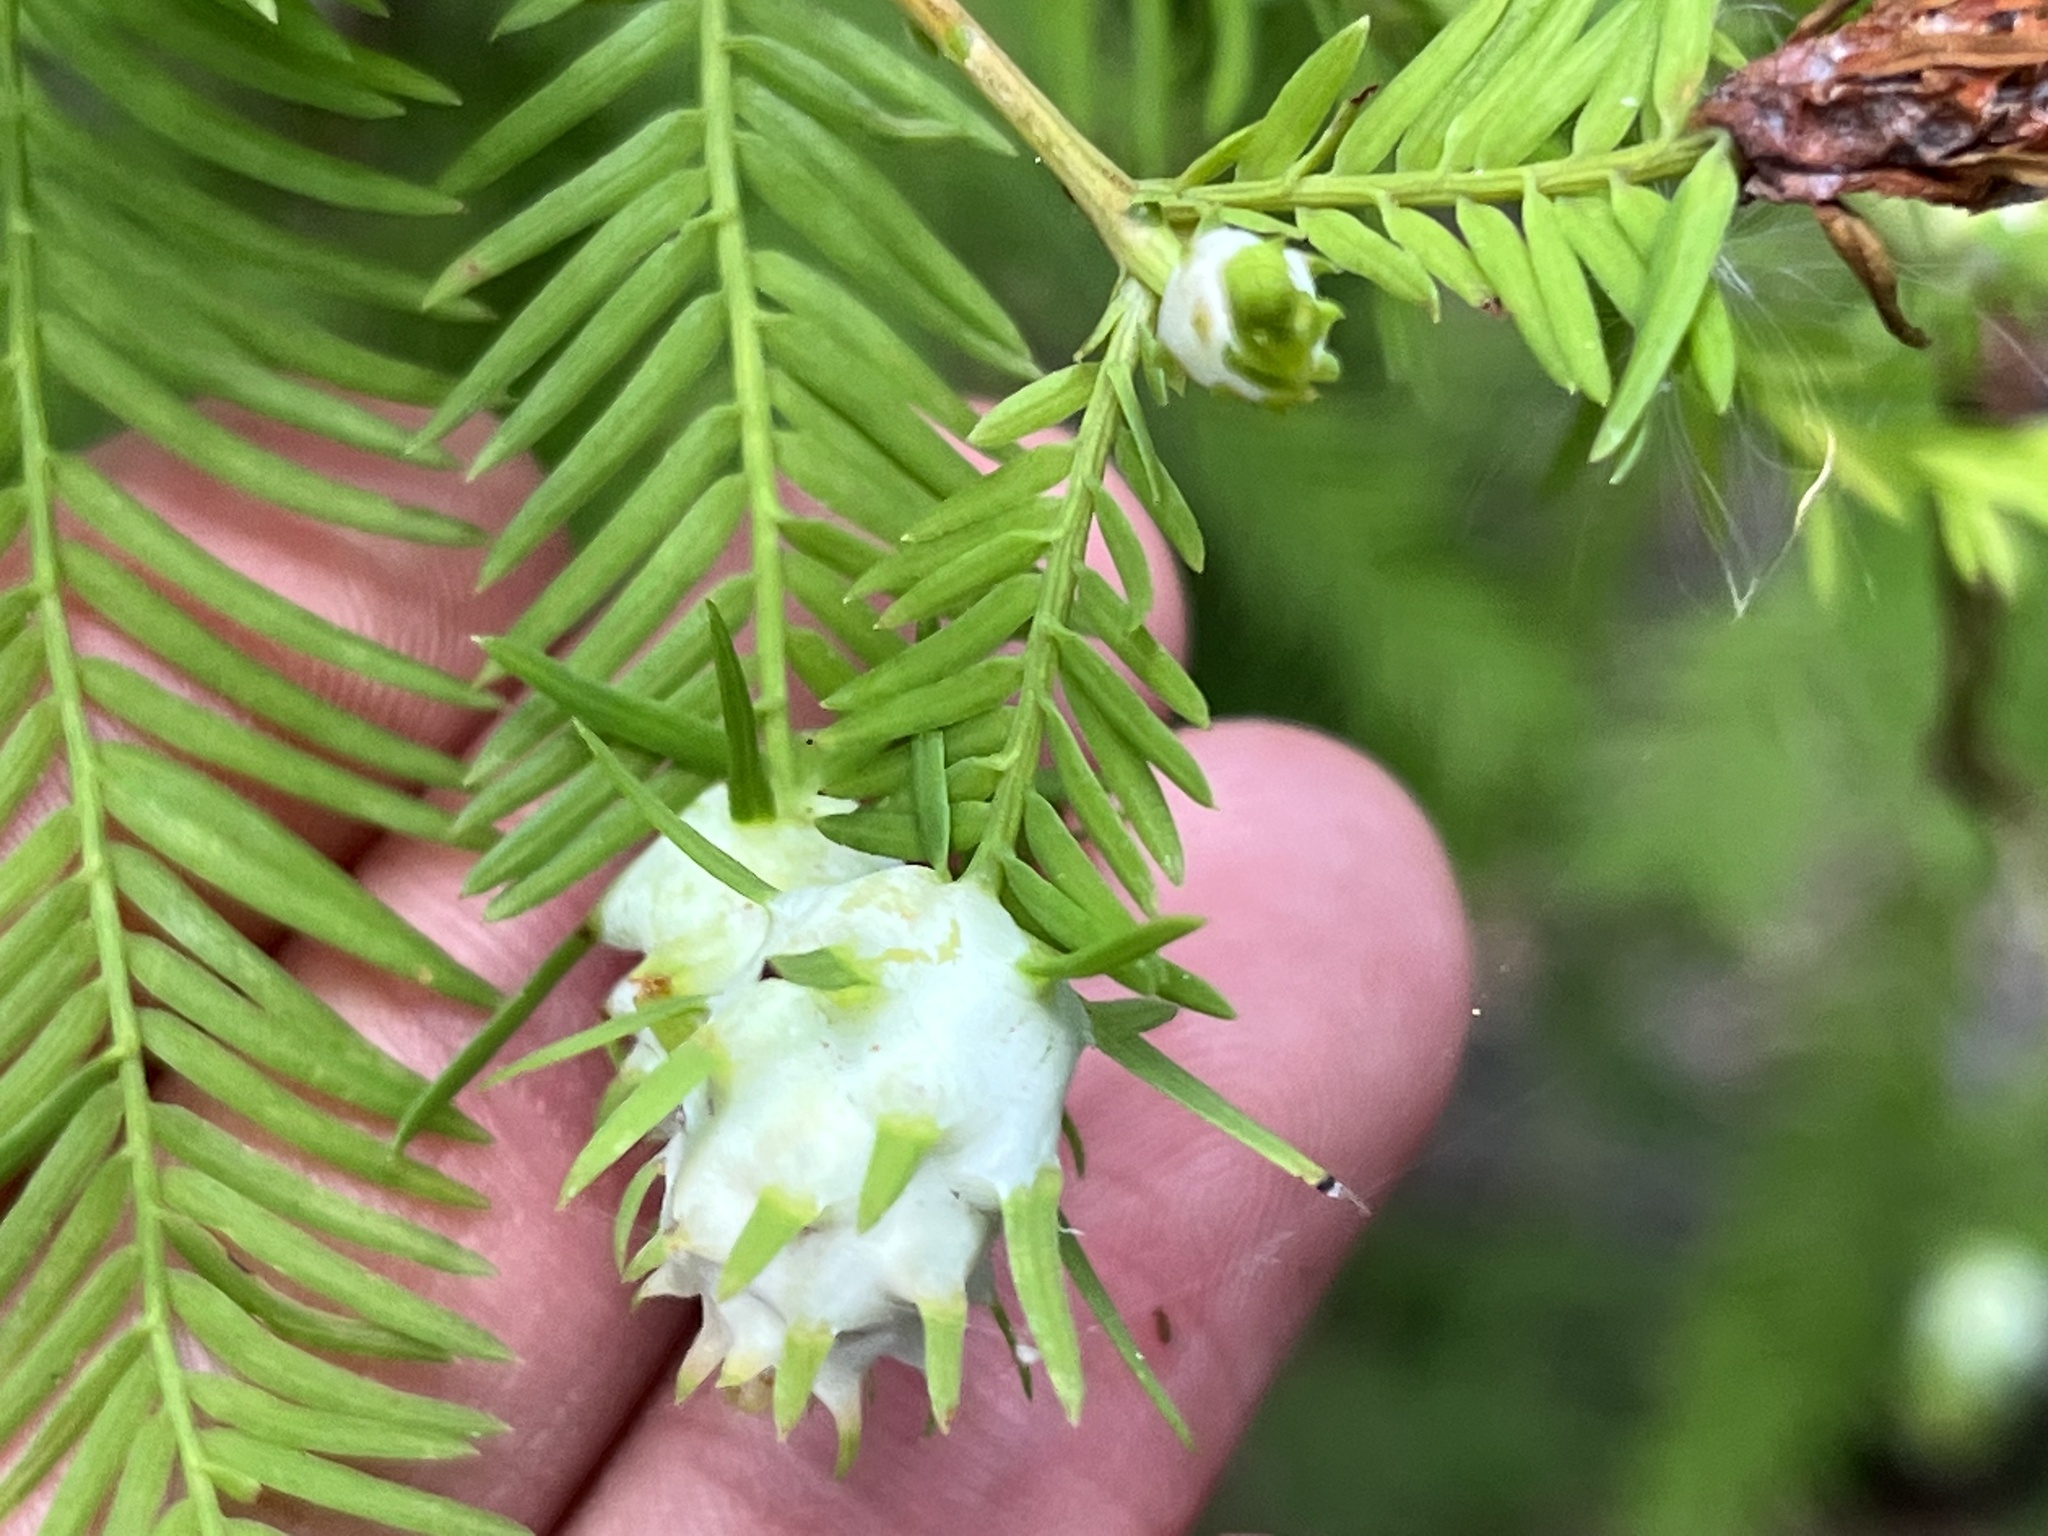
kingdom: Animalia
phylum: Arthropoda
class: Insecta
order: Diptera
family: Cecidomyiidae
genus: Taxodiomyia
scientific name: Taxodiomyia cupressiananassa
